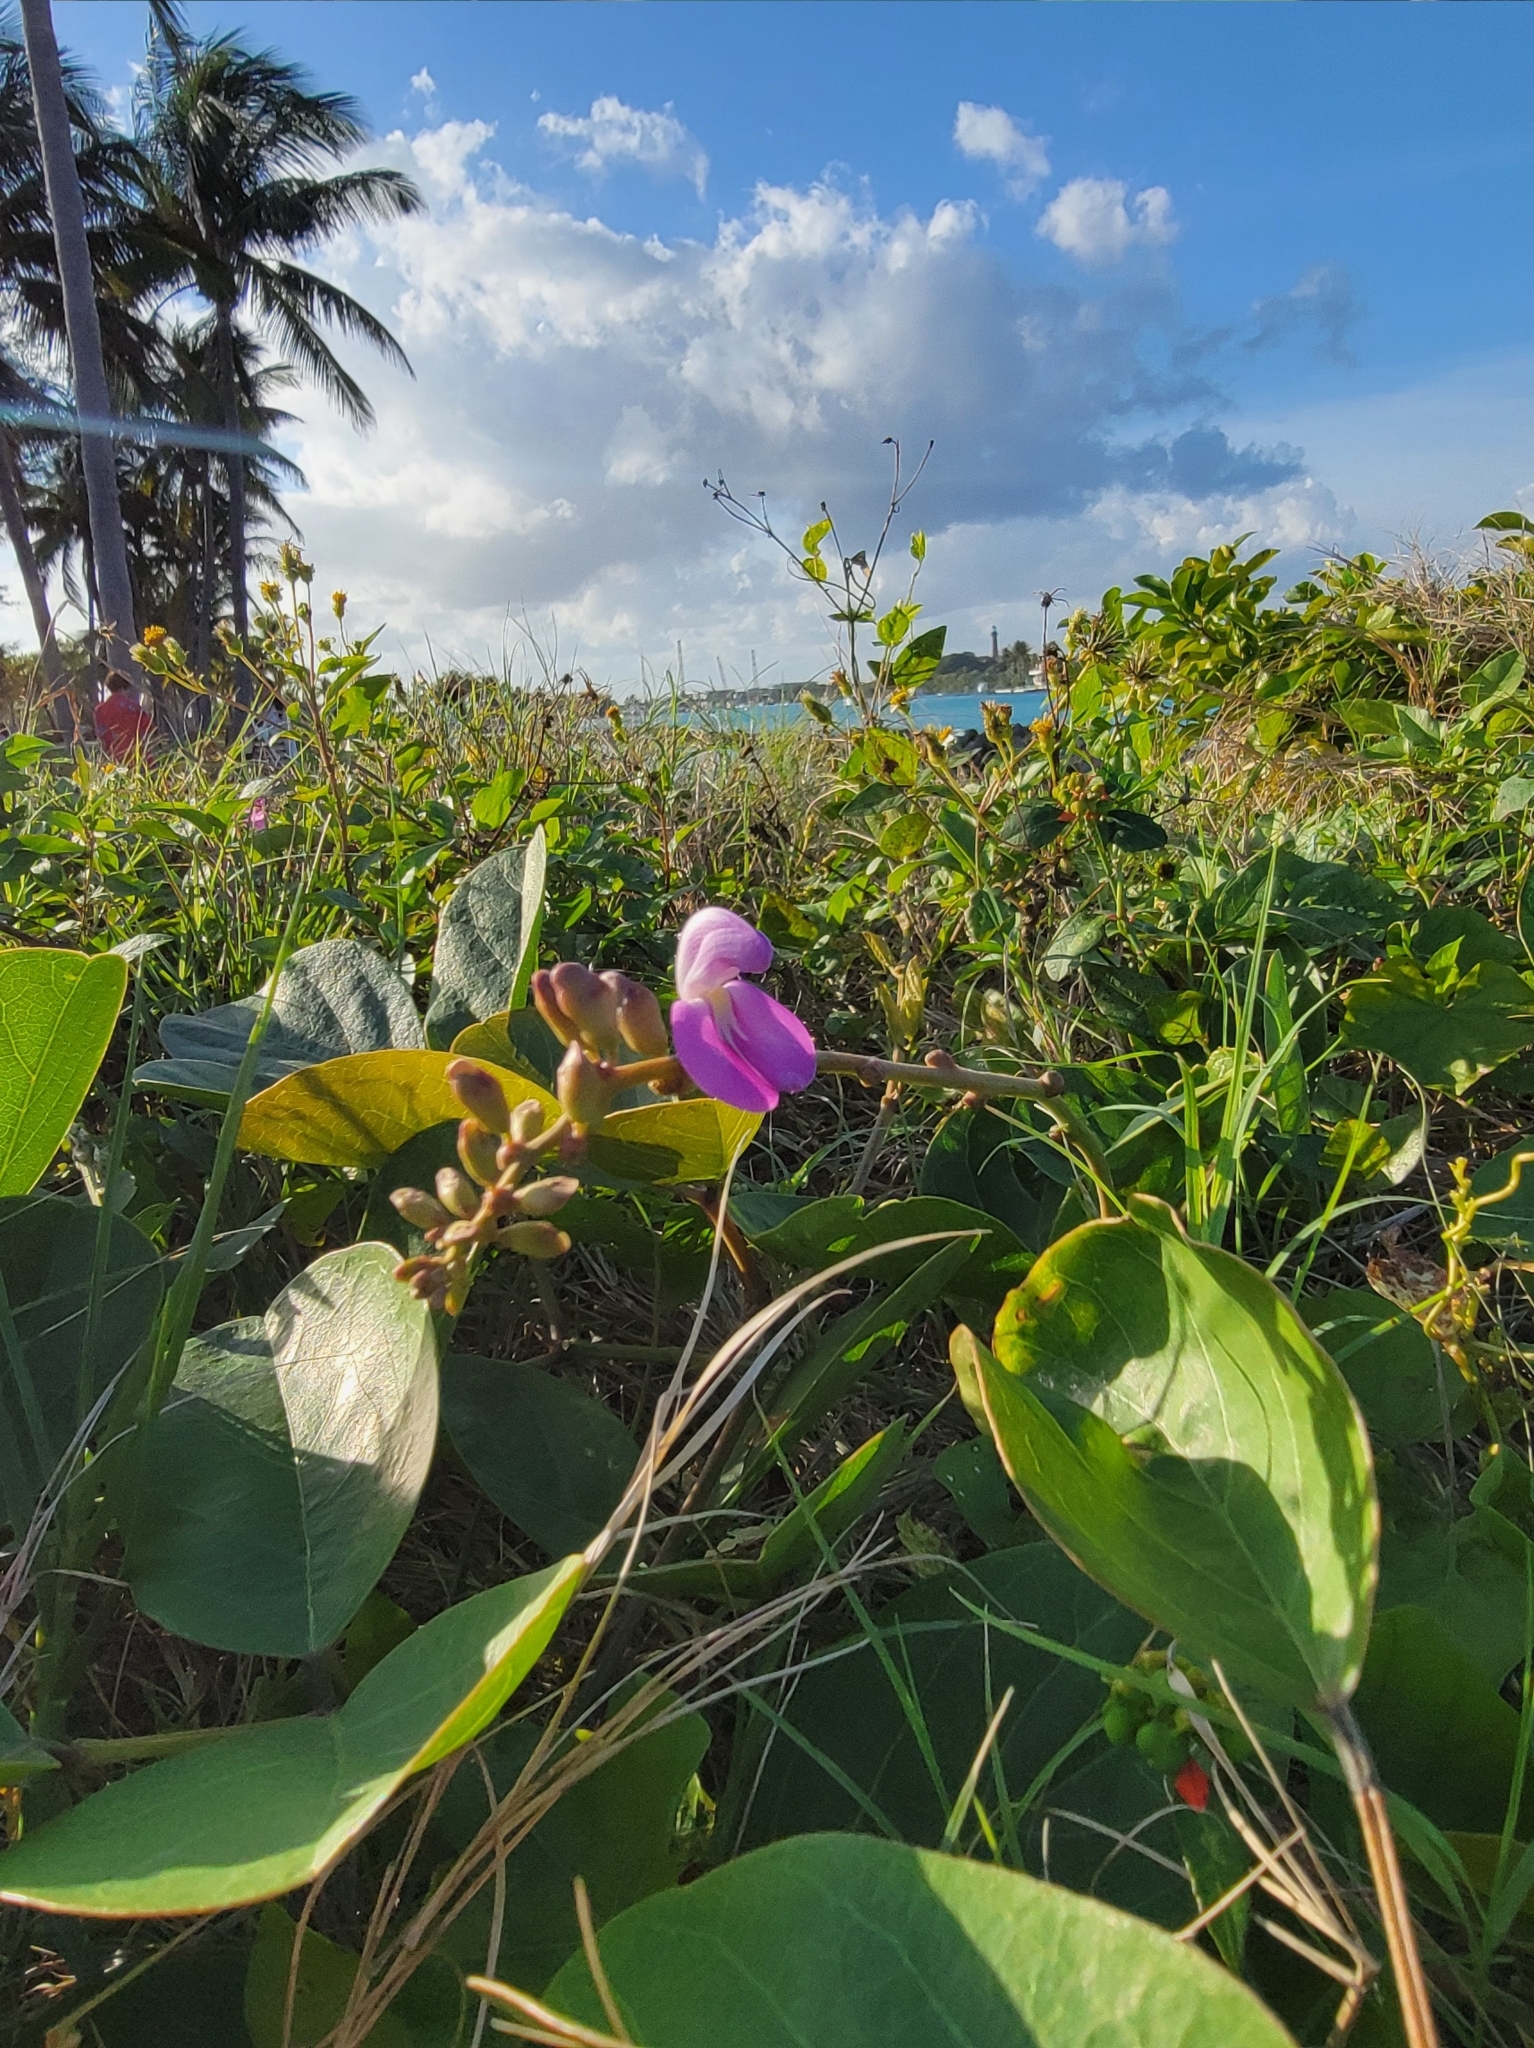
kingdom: Plantae
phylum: Tracheophyta
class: Magnoliopsida
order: Fabales
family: Fabaceae
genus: Canavalia
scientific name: Canavalia rosea
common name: Beach-bean
